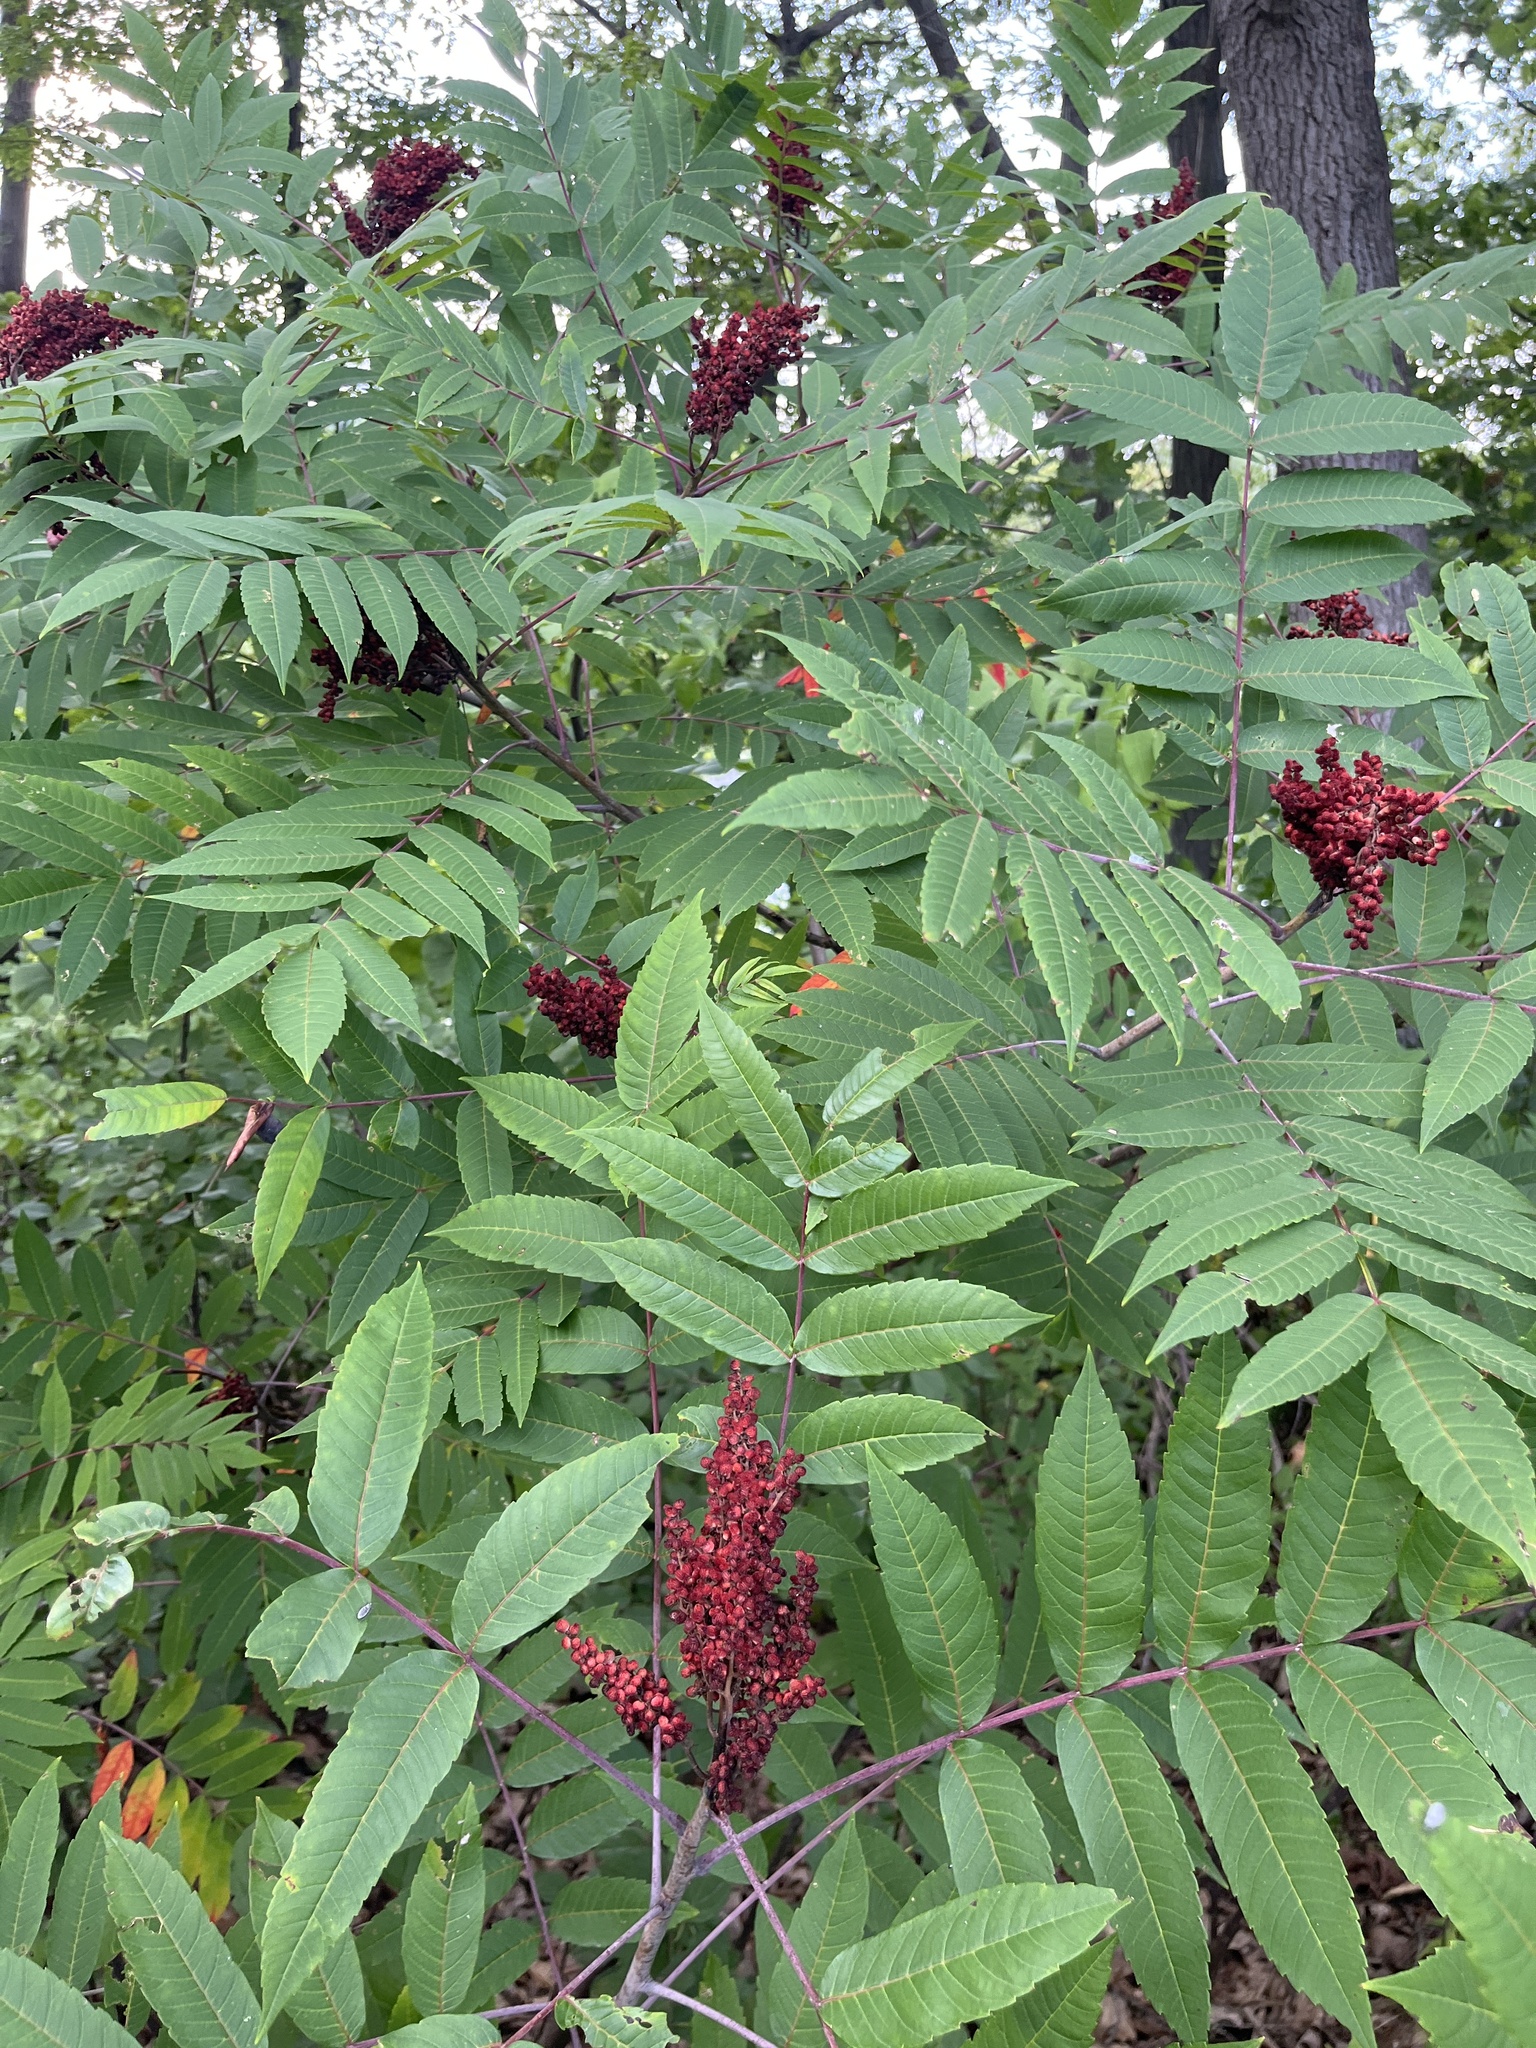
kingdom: Plantae
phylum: Tracheophyta
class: Magnoliopsida
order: Sapindales
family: Anacardiaceae
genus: Rhus
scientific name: Rhus glabra
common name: Scarlet sumac
